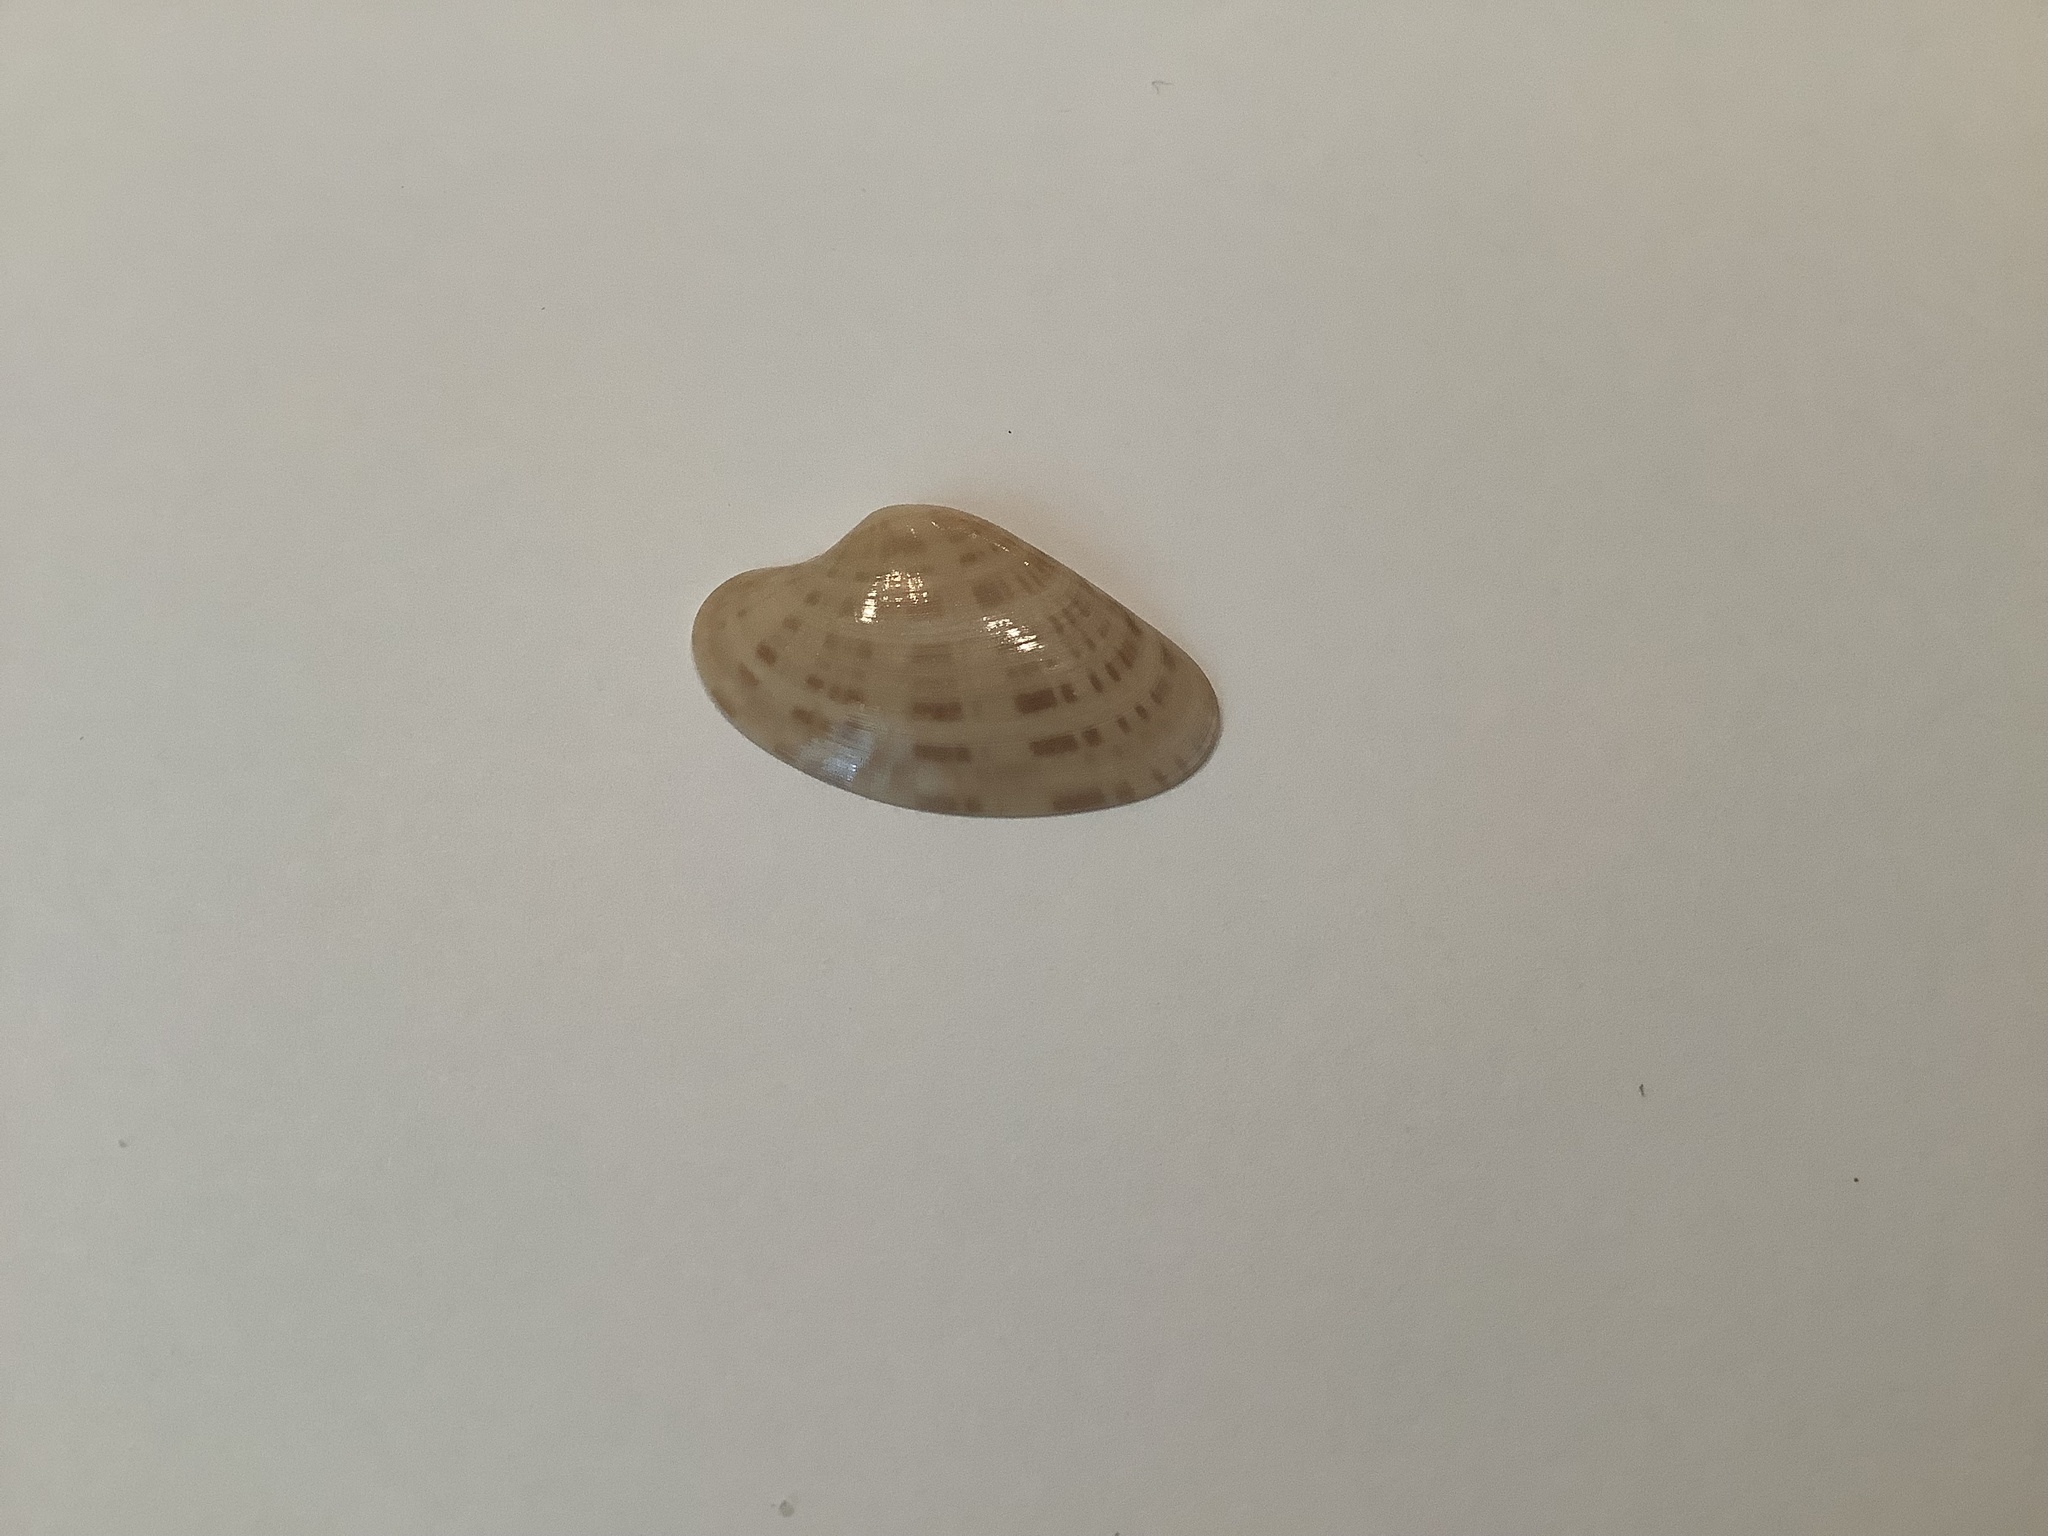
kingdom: Animalia
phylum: Mollusca
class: Bivalvia
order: Venerida
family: Veneridae
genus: Macrocallista
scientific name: Macrocallista nimbosa
